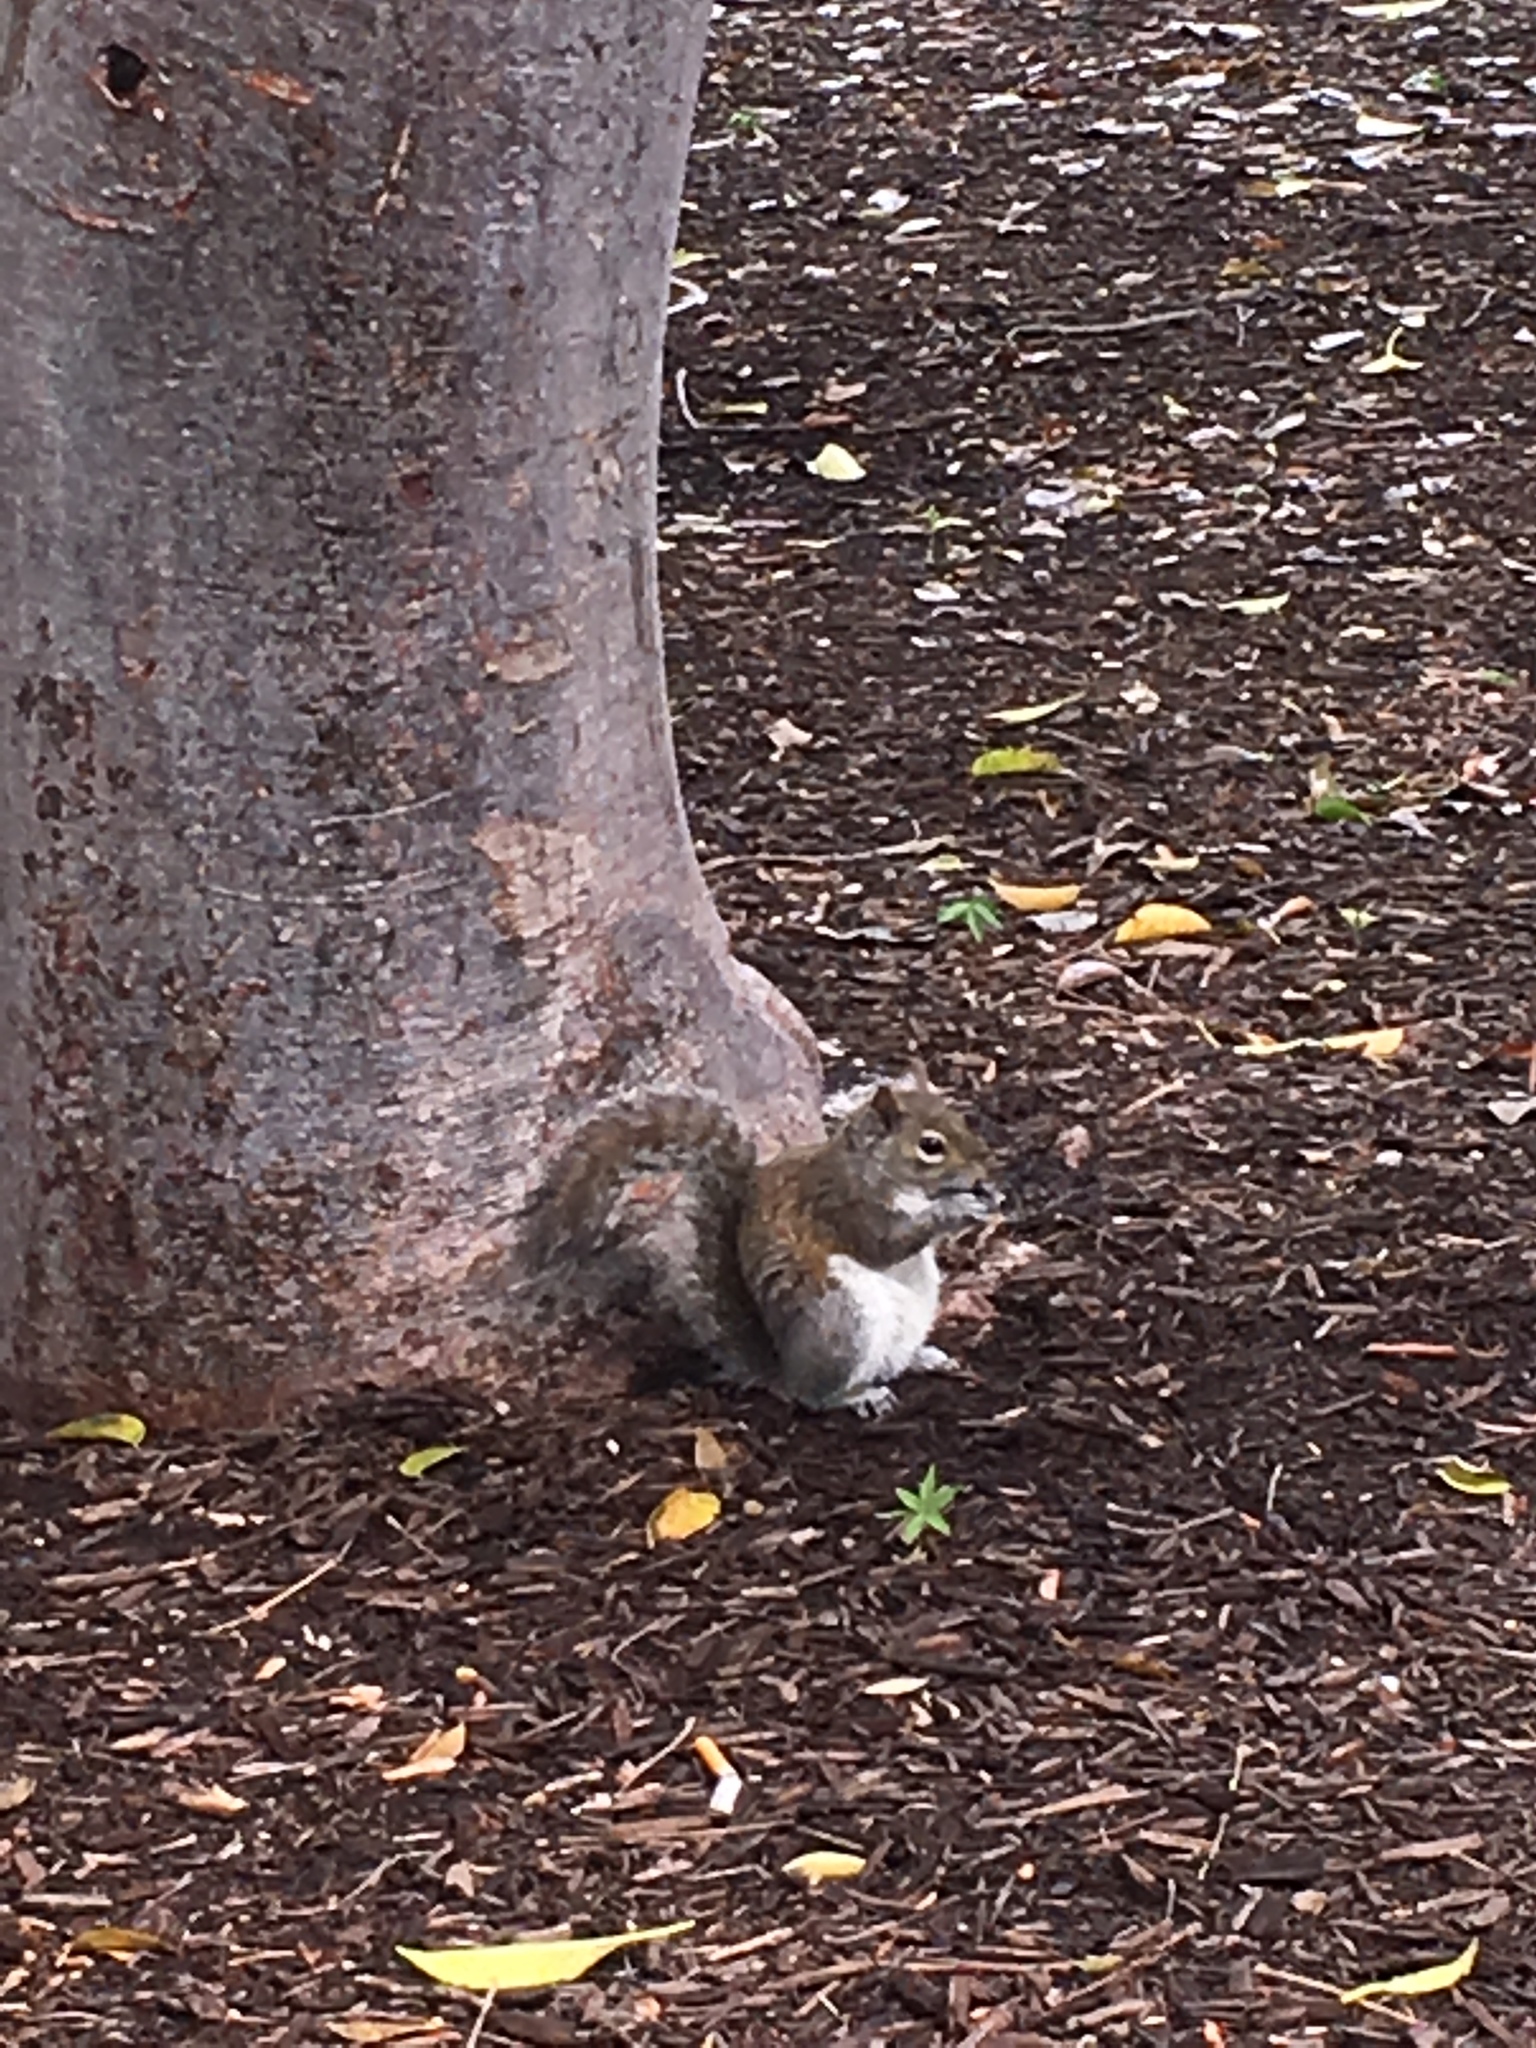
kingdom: Animalia
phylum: Chordata
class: Mammalia
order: Rodentia
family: Sciuridae
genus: Sciurus
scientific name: Sciurus carolinensis
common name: Eastern gray squirrel
